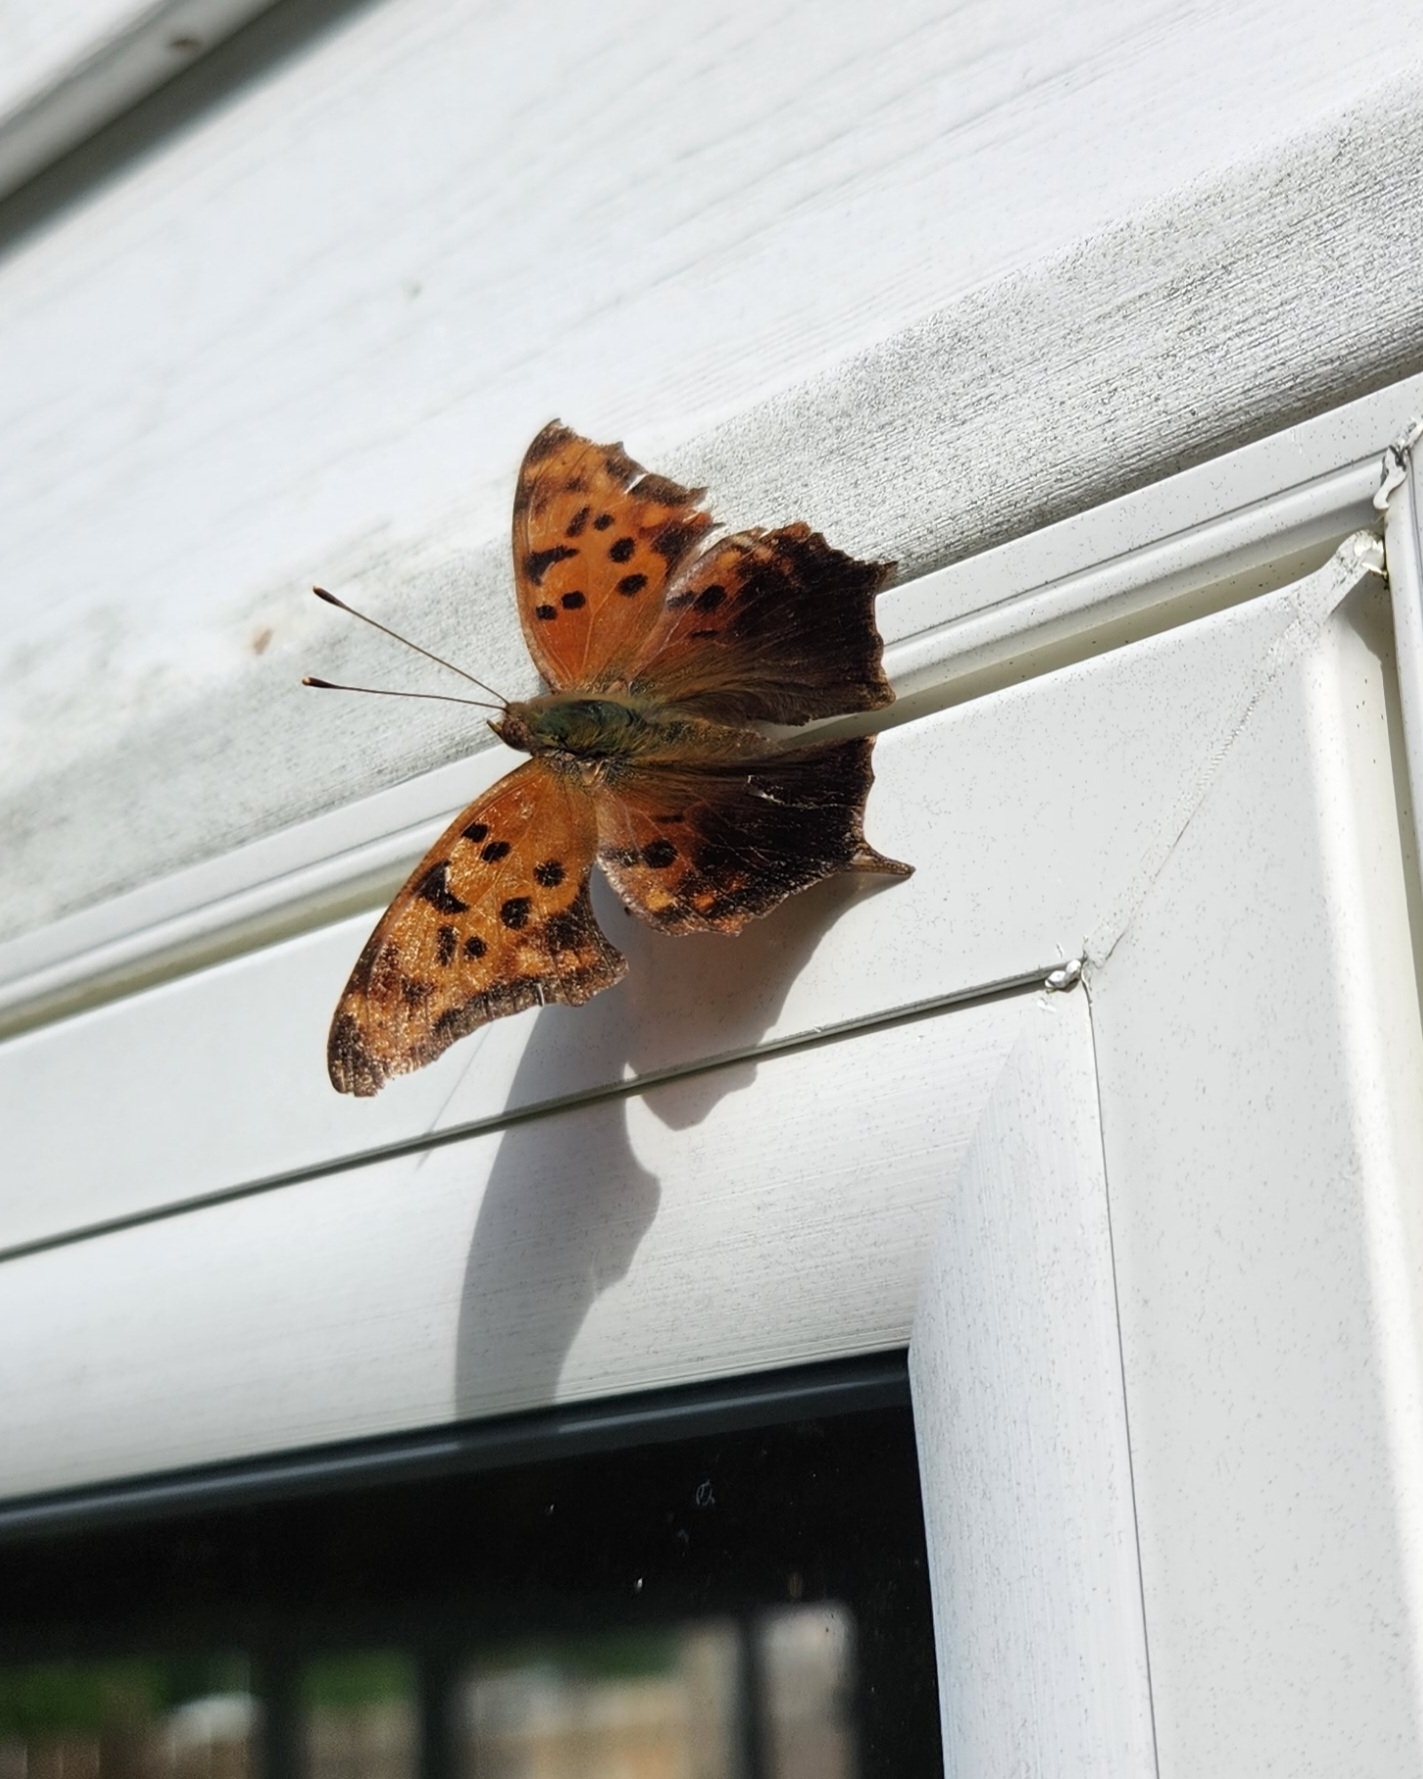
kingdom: Animalia
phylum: Arthropoda
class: Insecta
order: Lepidoptera
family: Nymphalidae
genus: Polygonia
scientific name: Polygonia interrogationis
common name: Question mark
